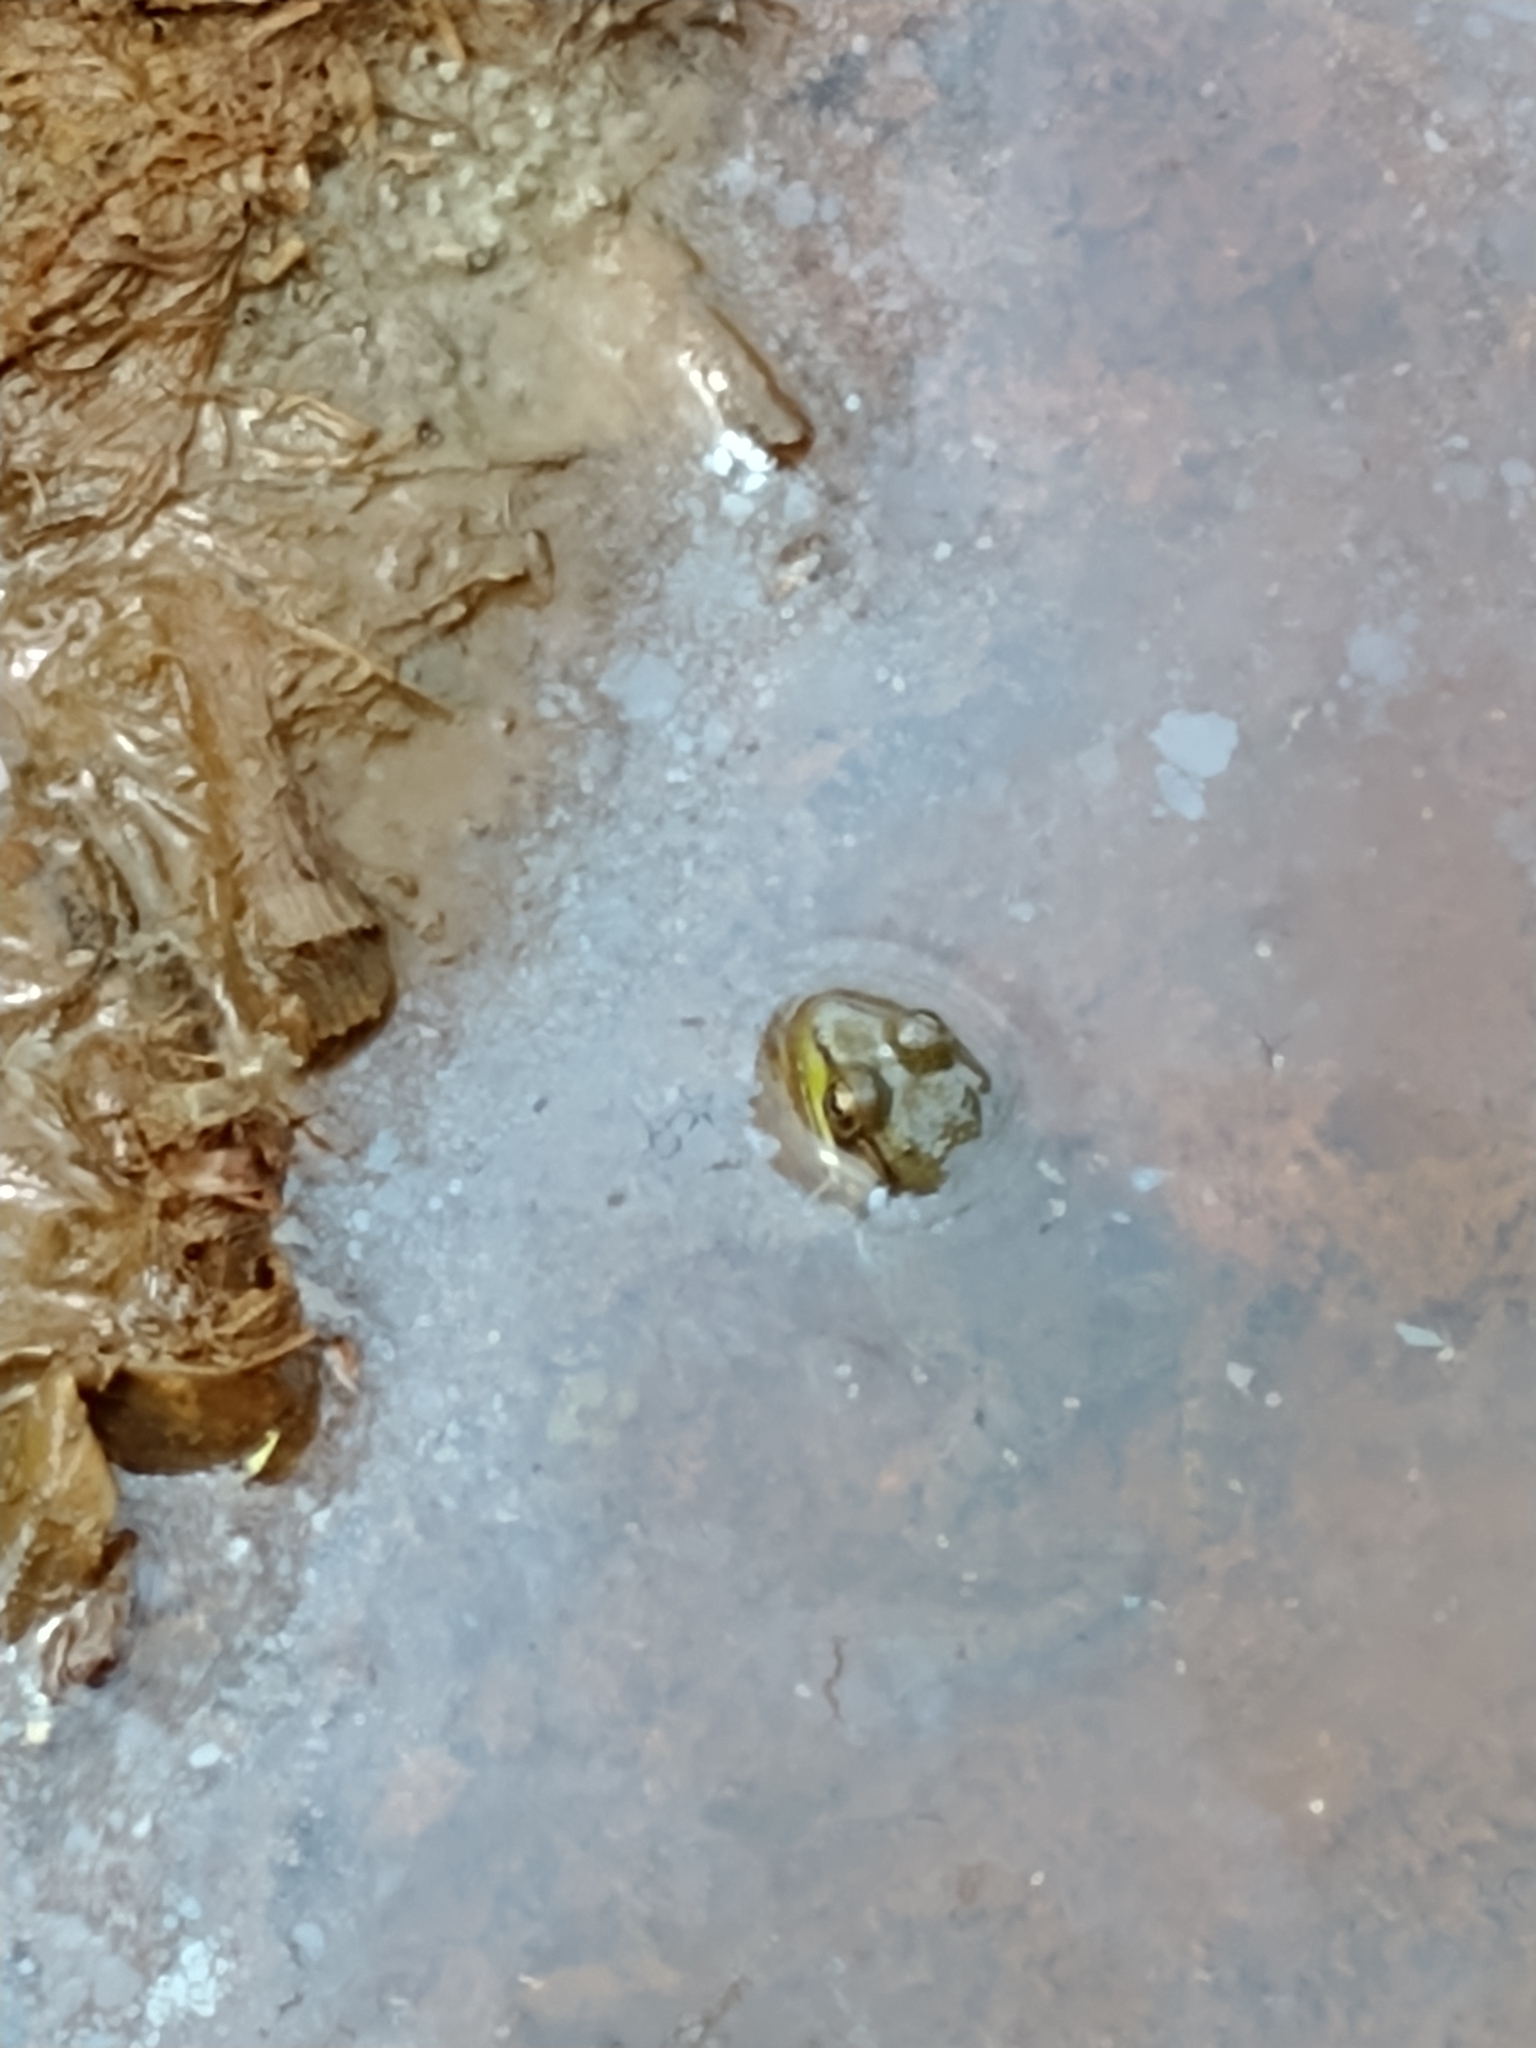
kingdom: Animalia
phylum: Chordata
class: Amphibia
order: Anura
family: Ranidae
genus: Lithobates
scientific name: Lithobates clamitans
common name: Green frog
